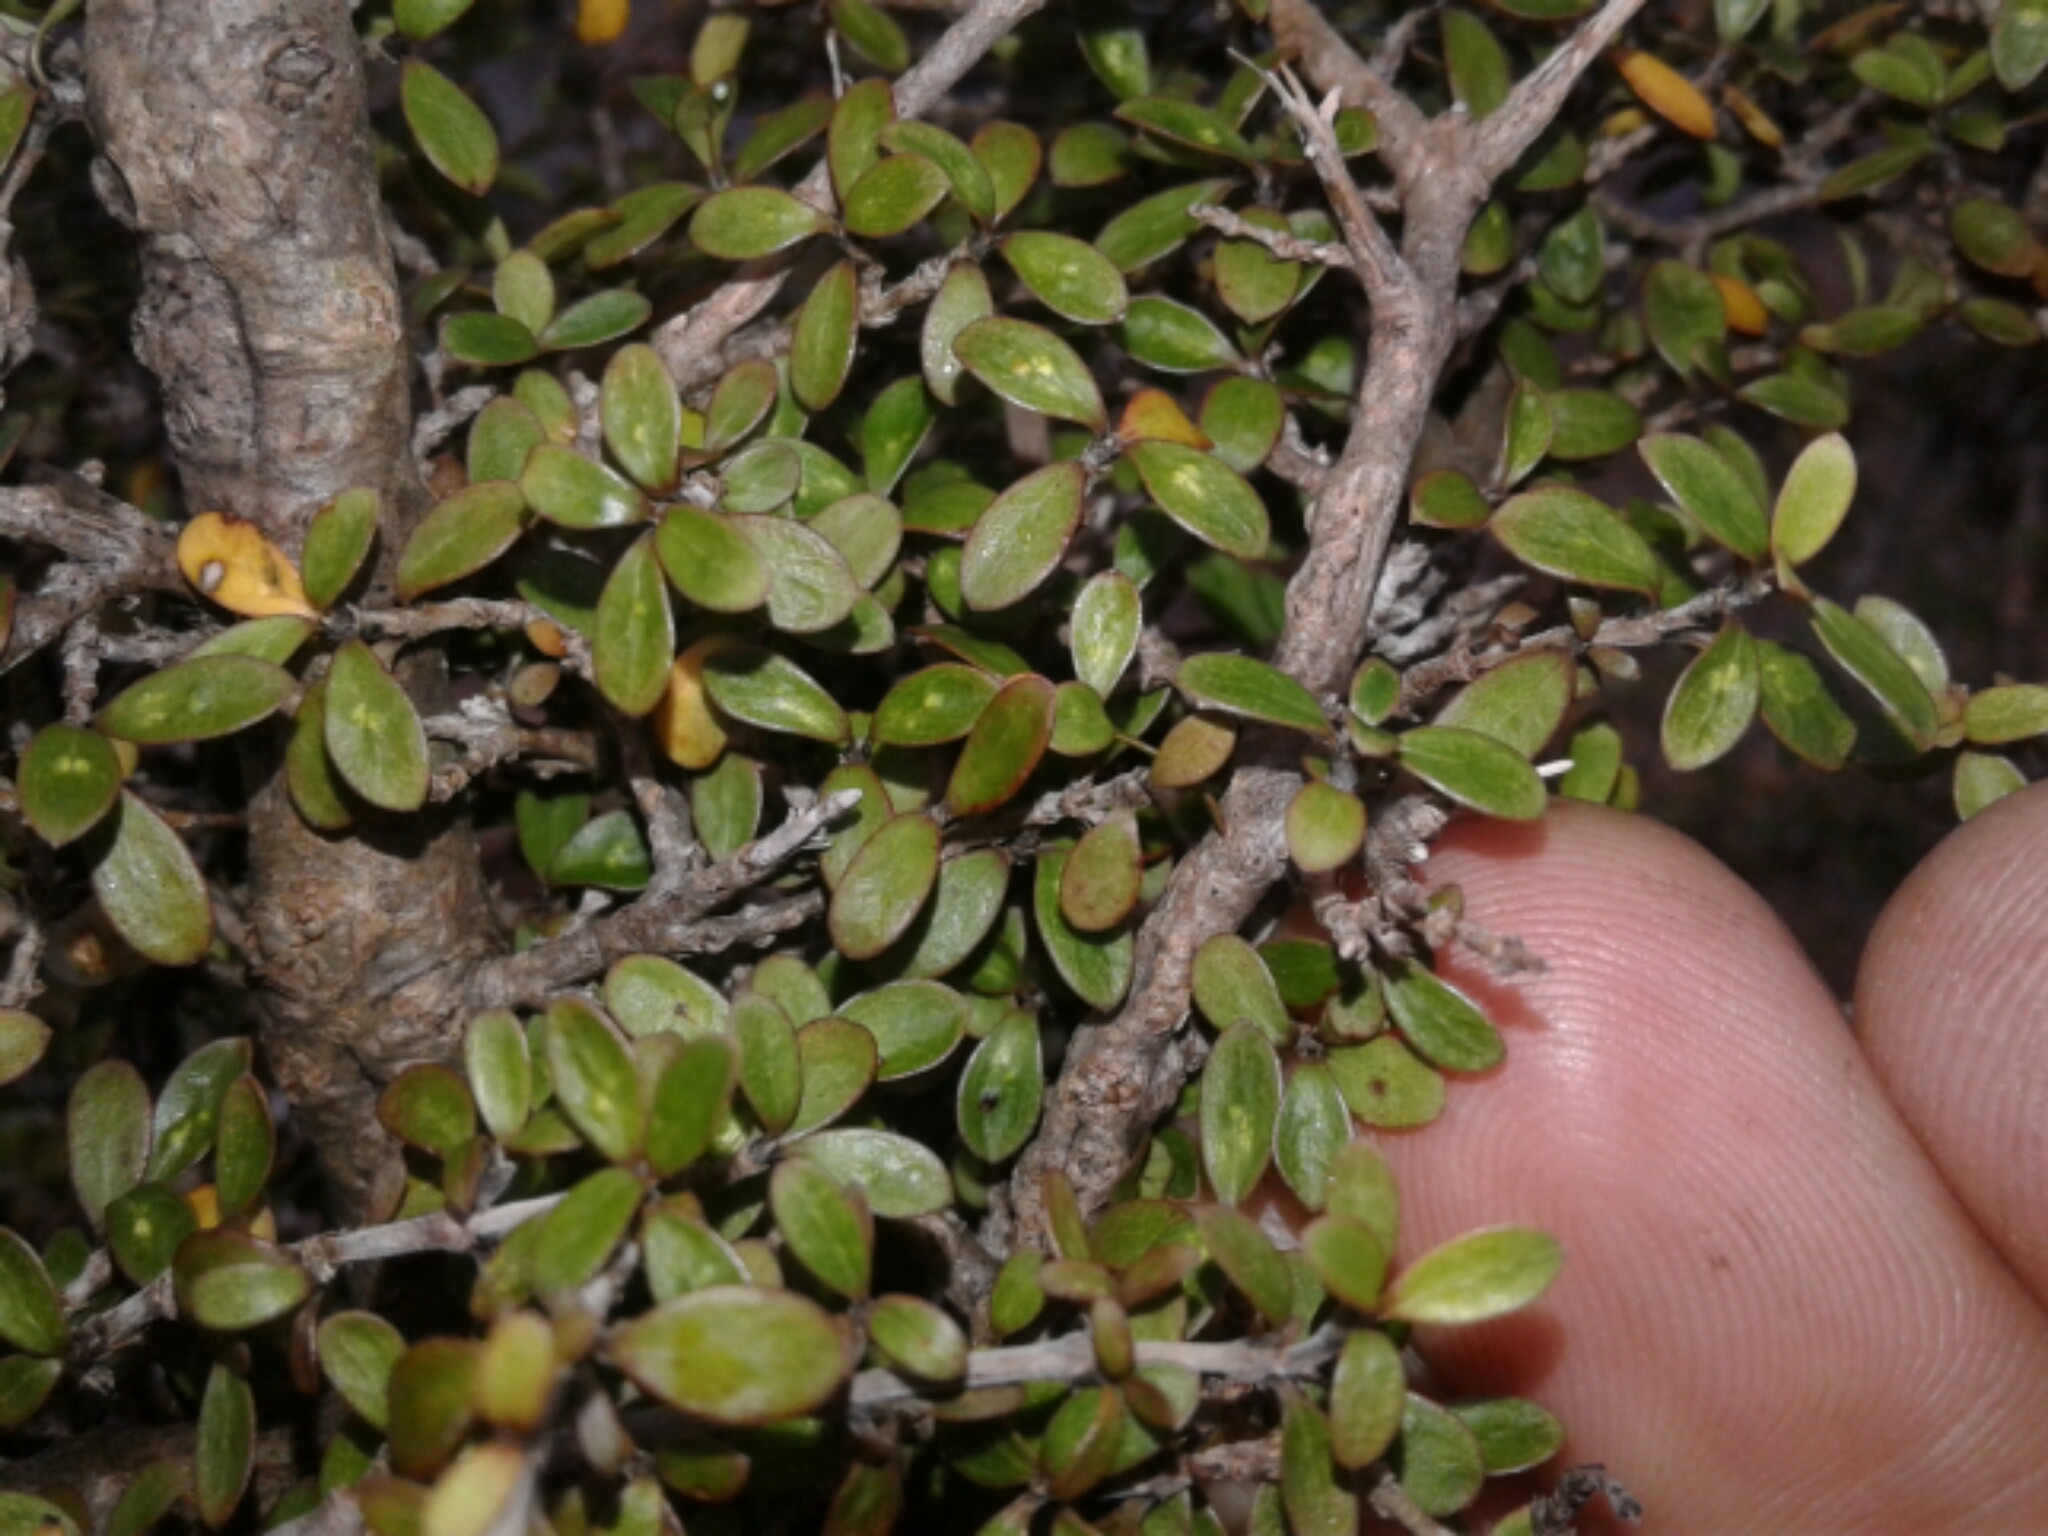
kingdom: Plantae
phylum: Tracheophyta
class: Magnoliopsida
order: Gentianales
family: Rubiaceae
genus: Coprosma
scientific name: Coprosma dumosa
